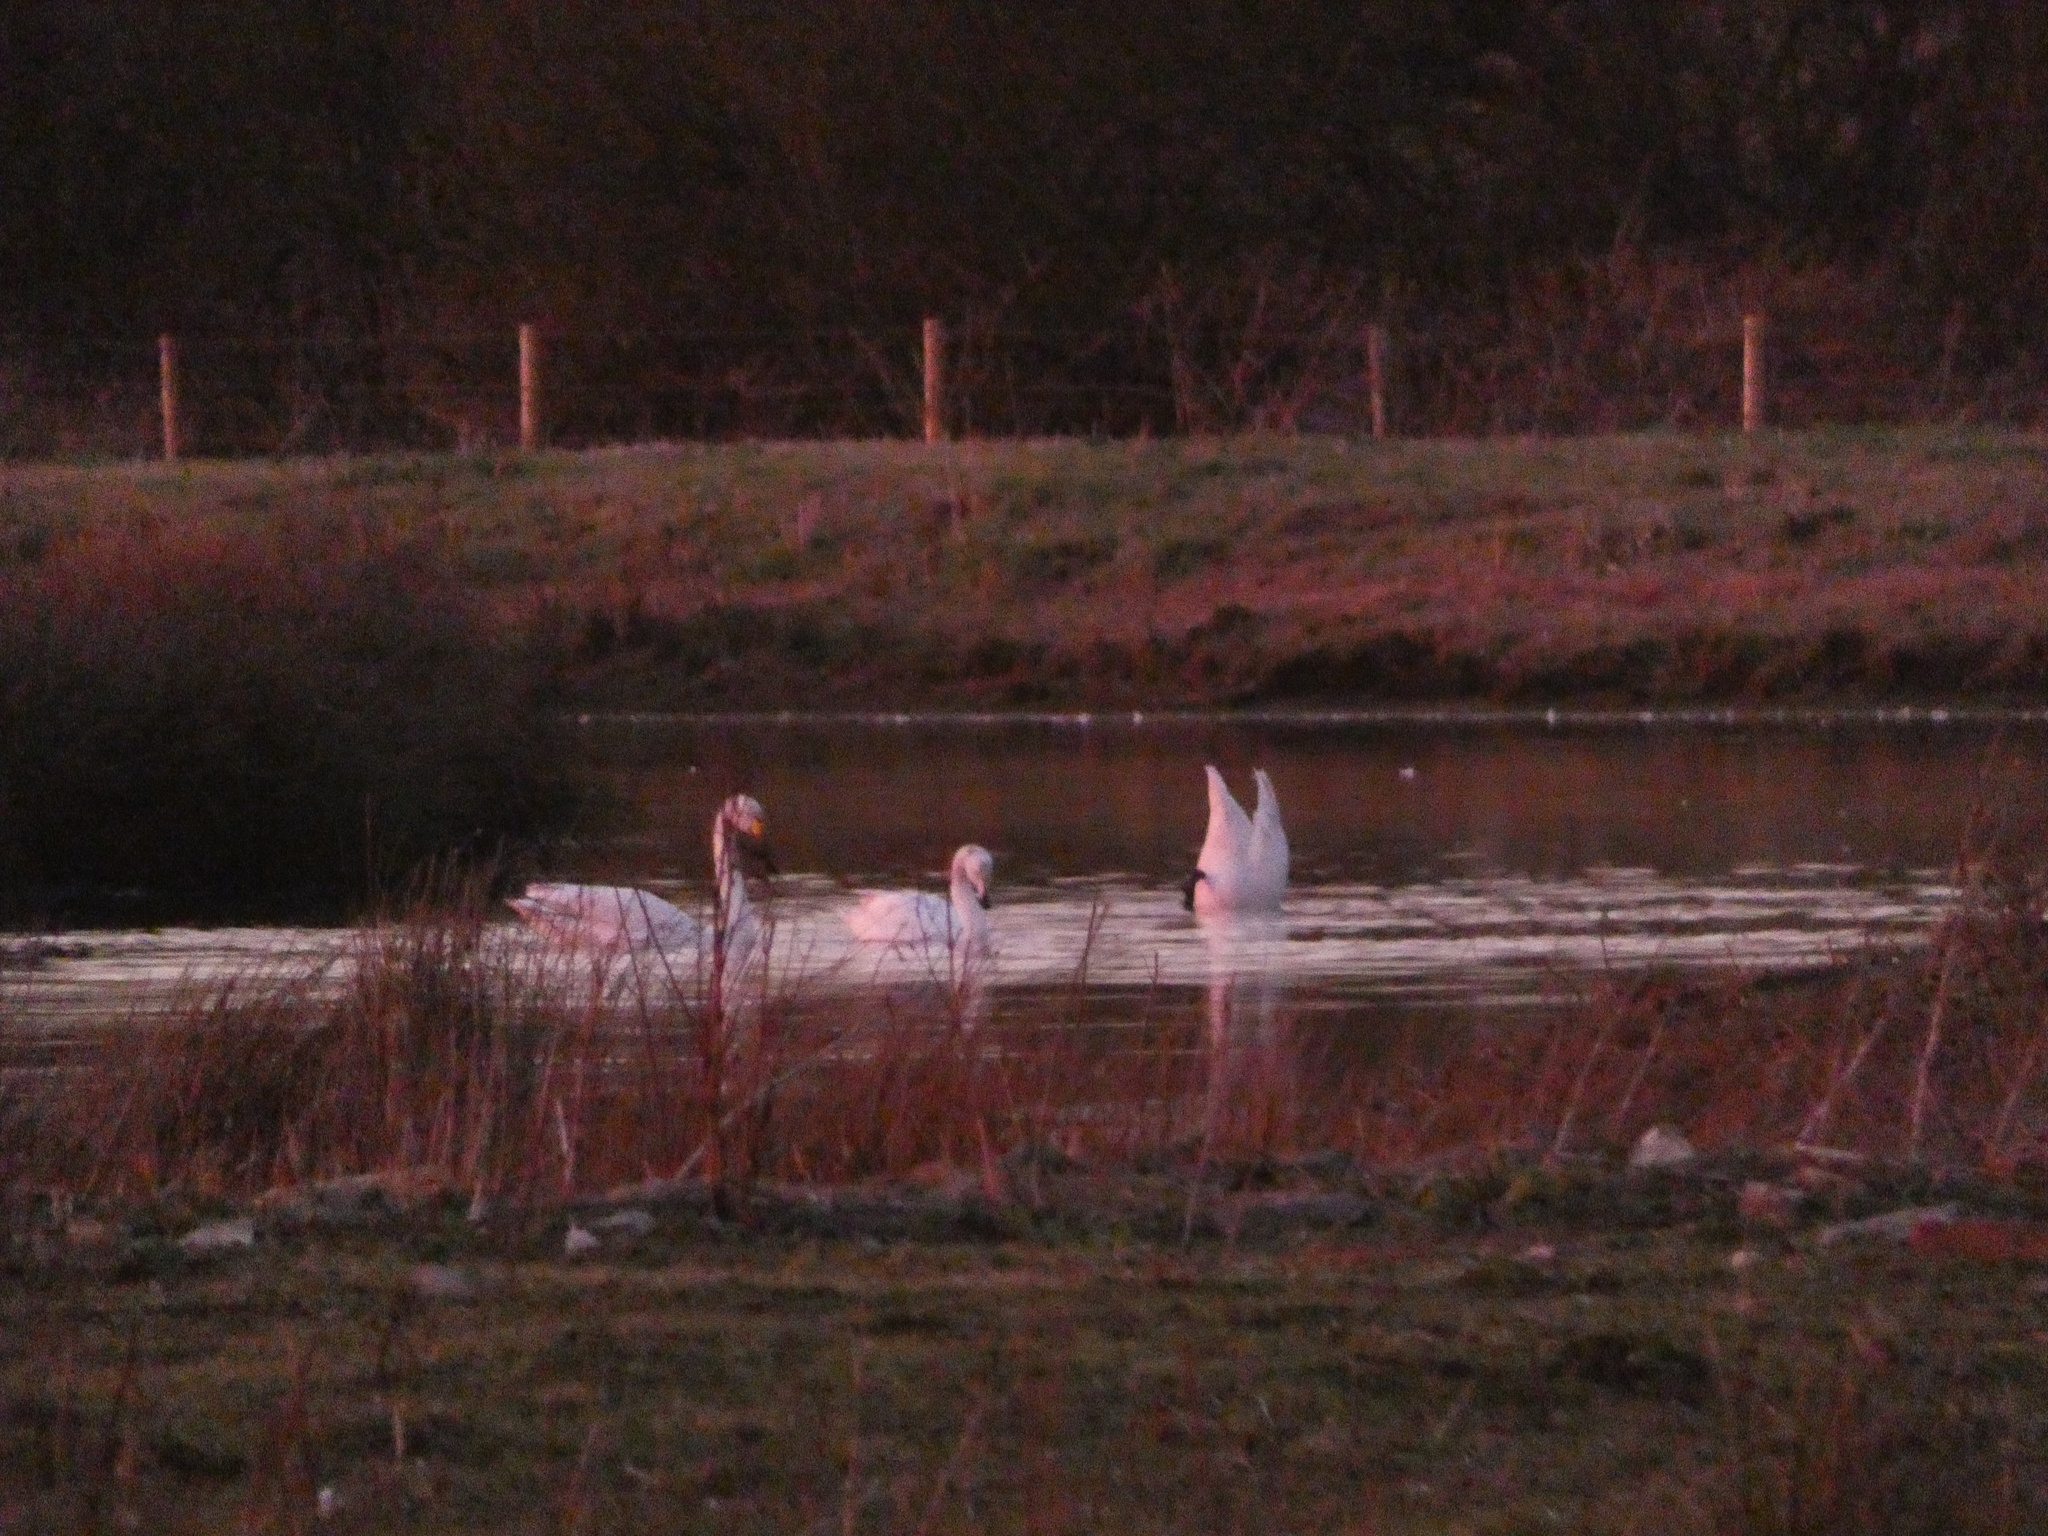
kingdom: Animalia
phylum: Chordata
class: Aves
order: Anseriformes
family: Anatidae
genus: Cygnus
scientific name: Cygnus cygnus
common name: Whooper swan
